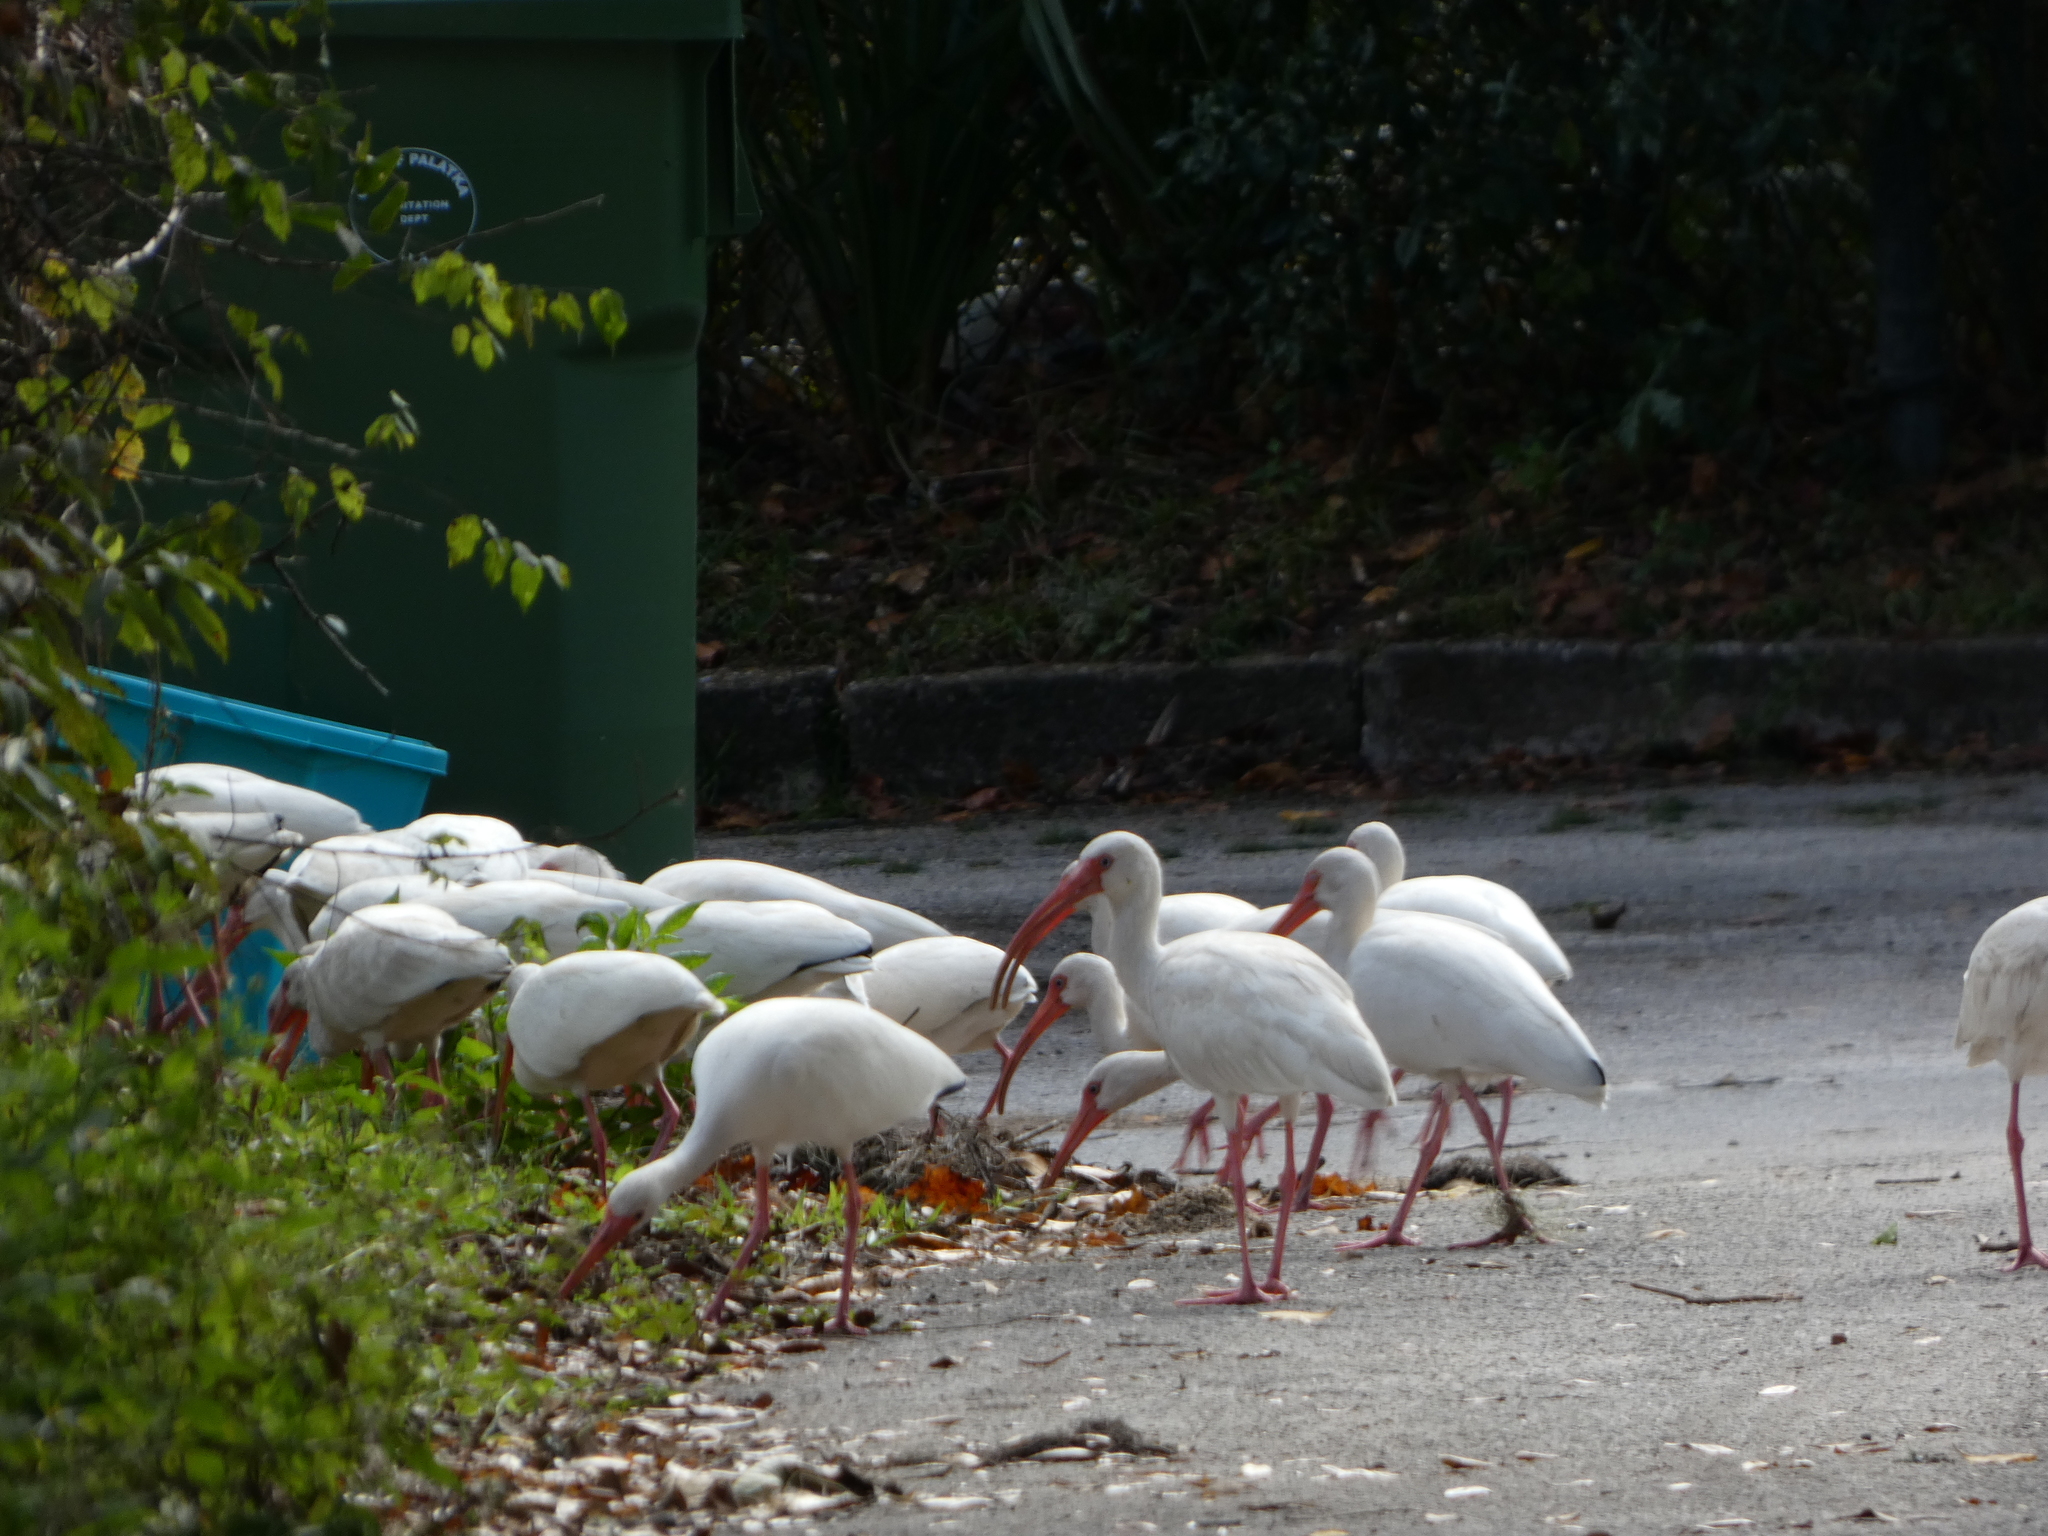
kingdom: Animalia
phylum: Chordata
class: Aves
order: Pelecaniformes
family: Threskiornithidae
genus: Eudocimus
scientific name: Eudocimus albus
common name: White ibis
